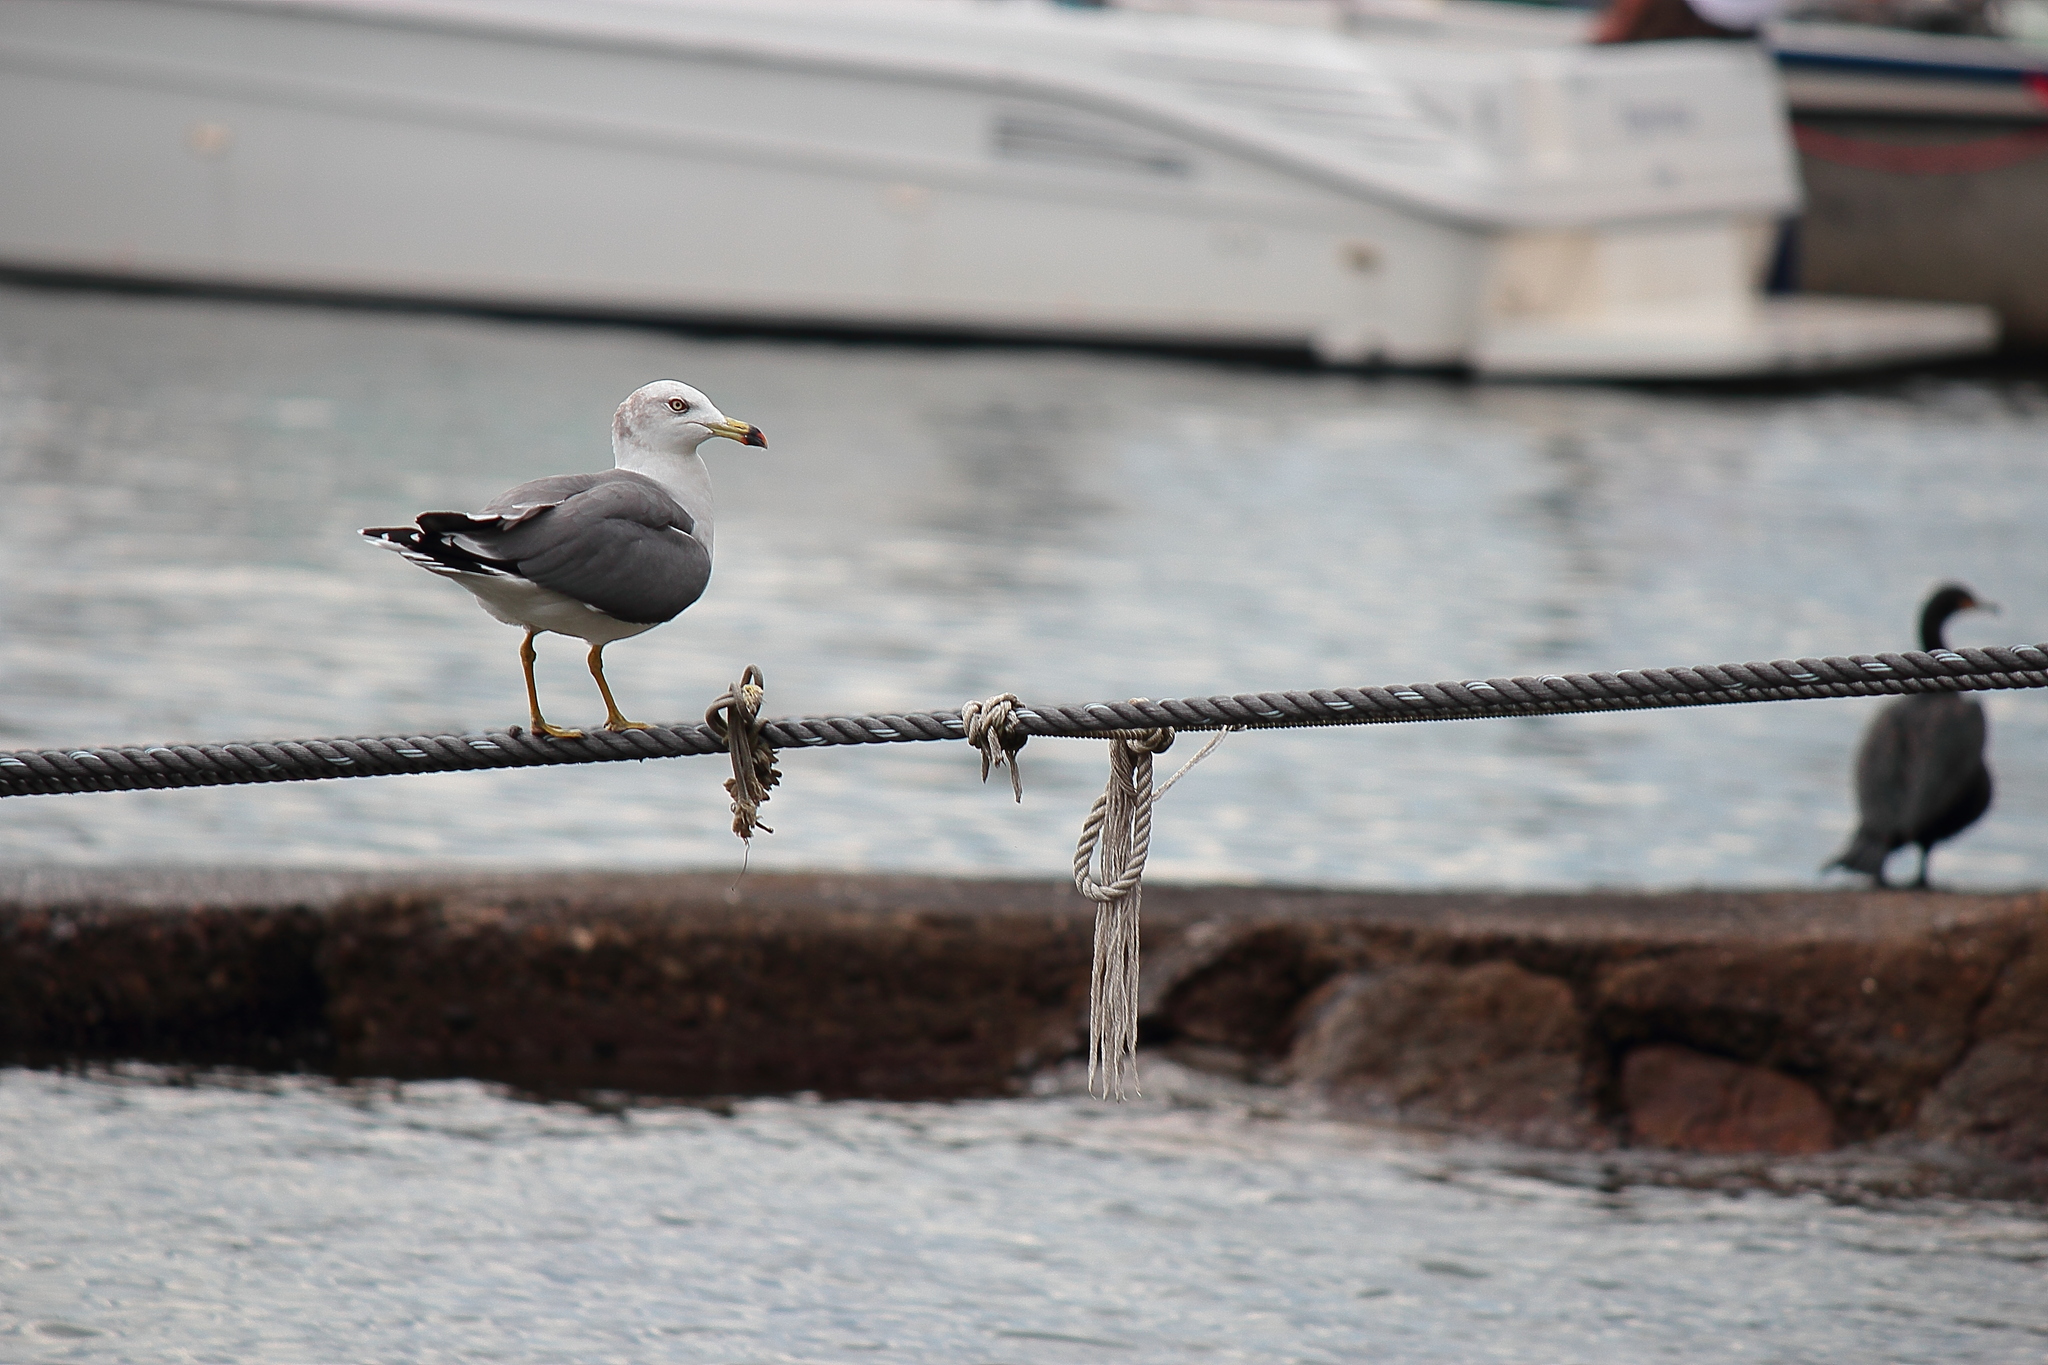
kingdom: Animalia
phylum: Chordata
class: Aves
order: Charadriiformes
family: Laridae
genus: Larus
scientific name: Larus crassirostris
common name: Black-tailed gull
